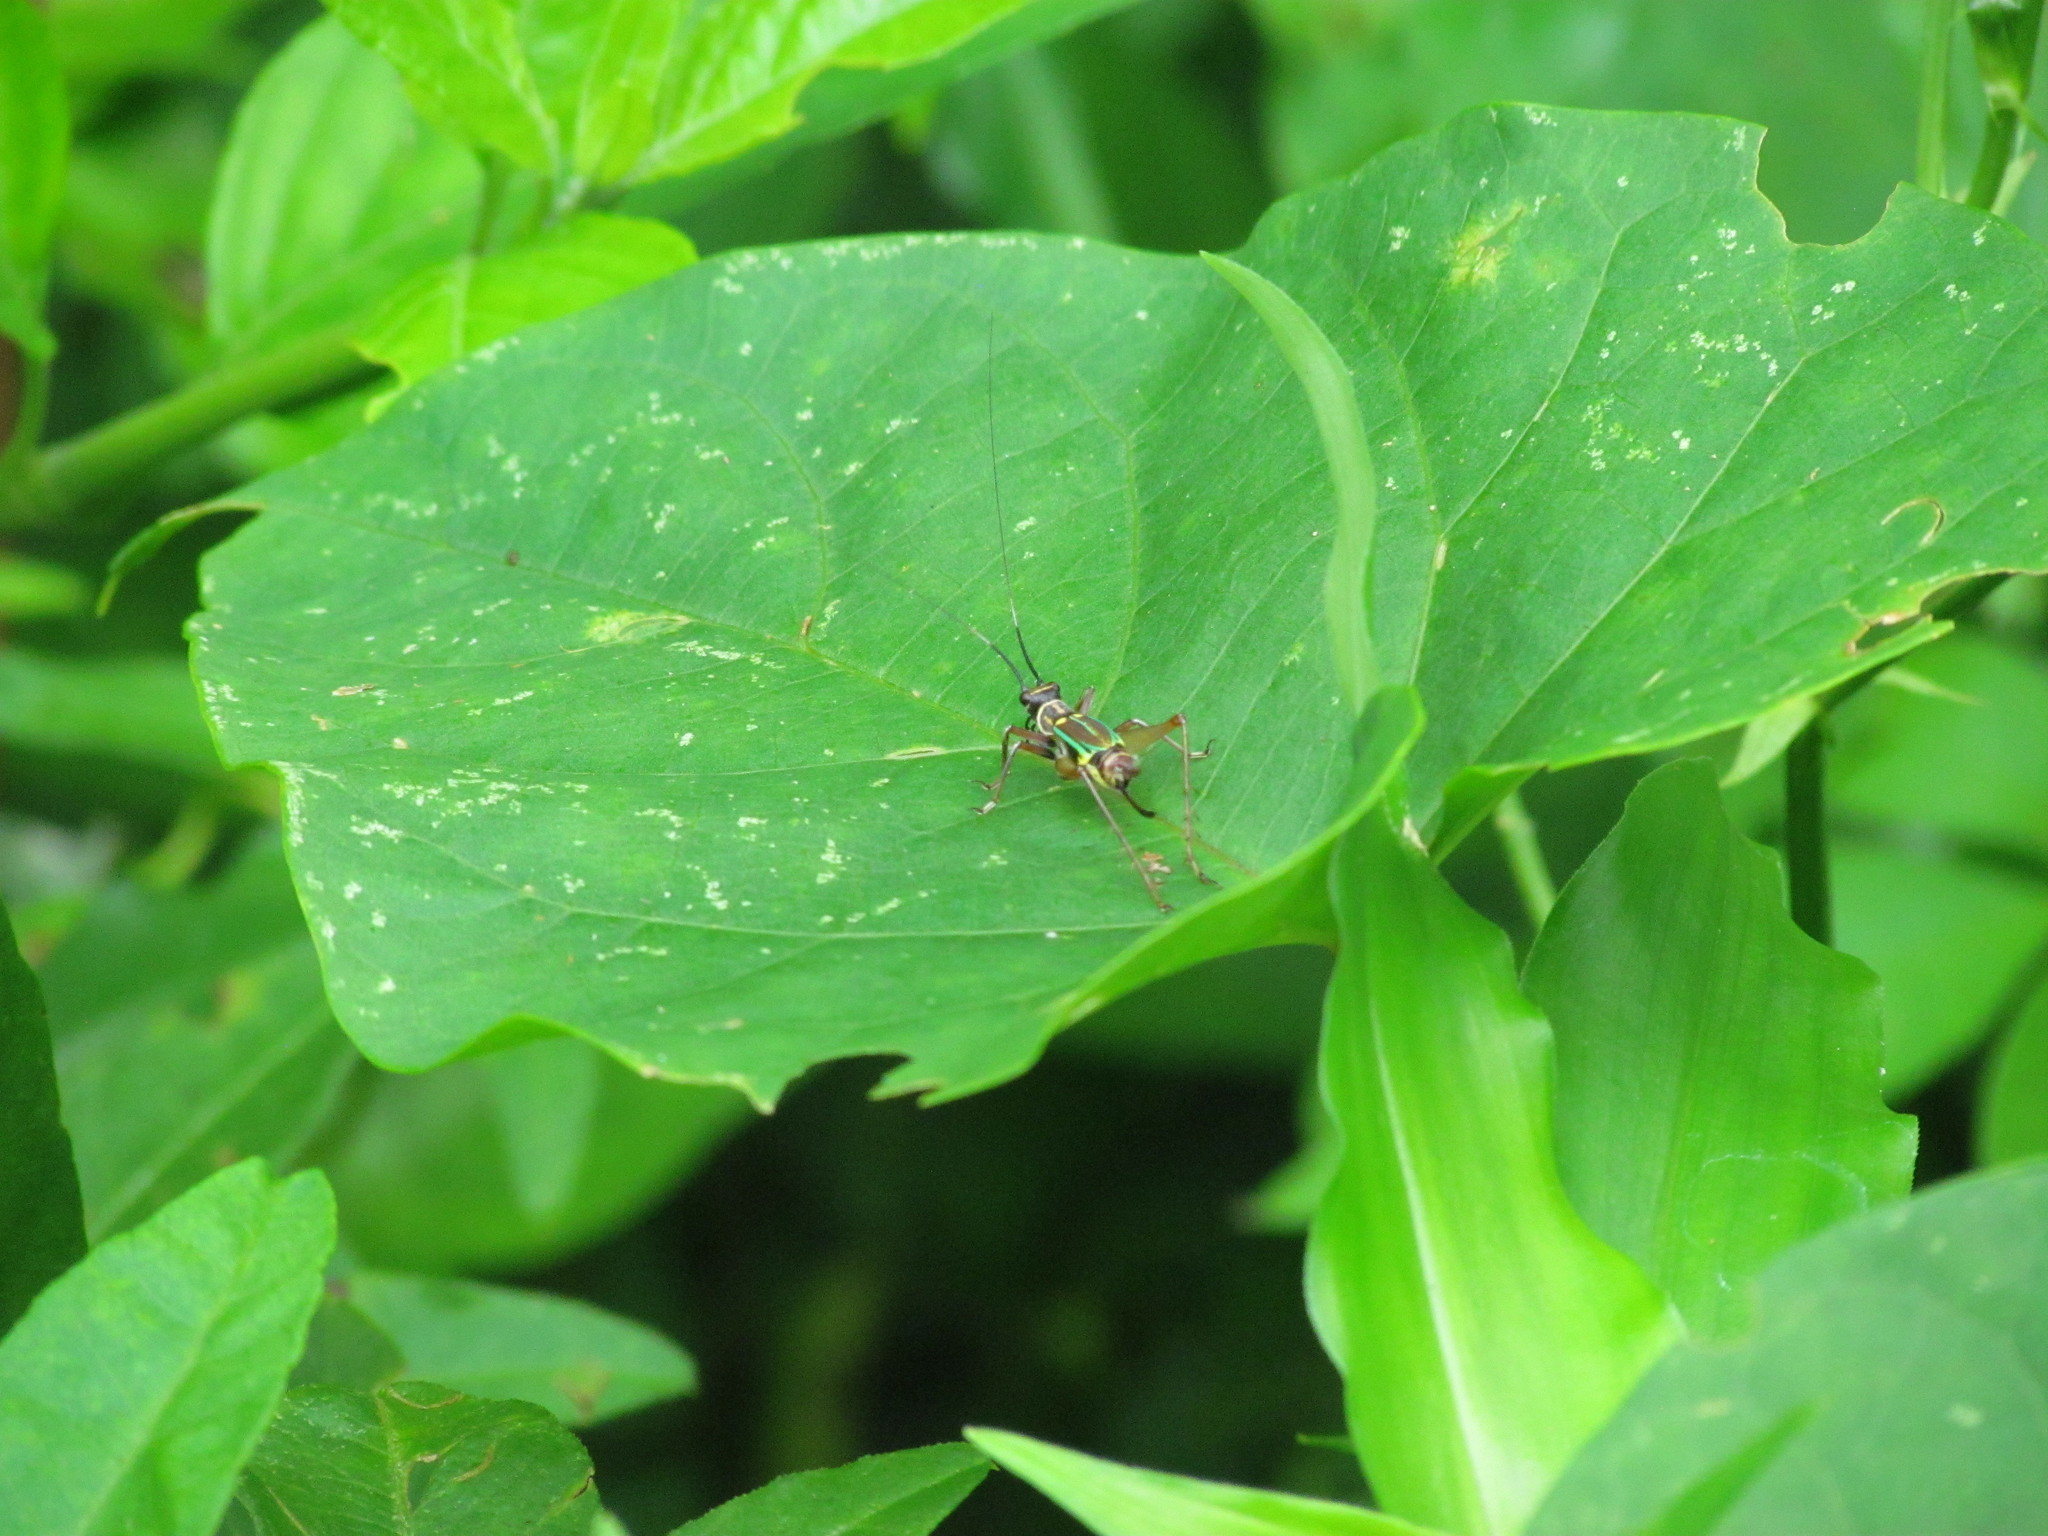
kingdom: Animalia
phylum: Arthropoda
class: Insecta
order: Orthoptera
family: Trigonidiidae
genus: Phylloscyrtus
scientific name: Phylloscyrtus amoenus
